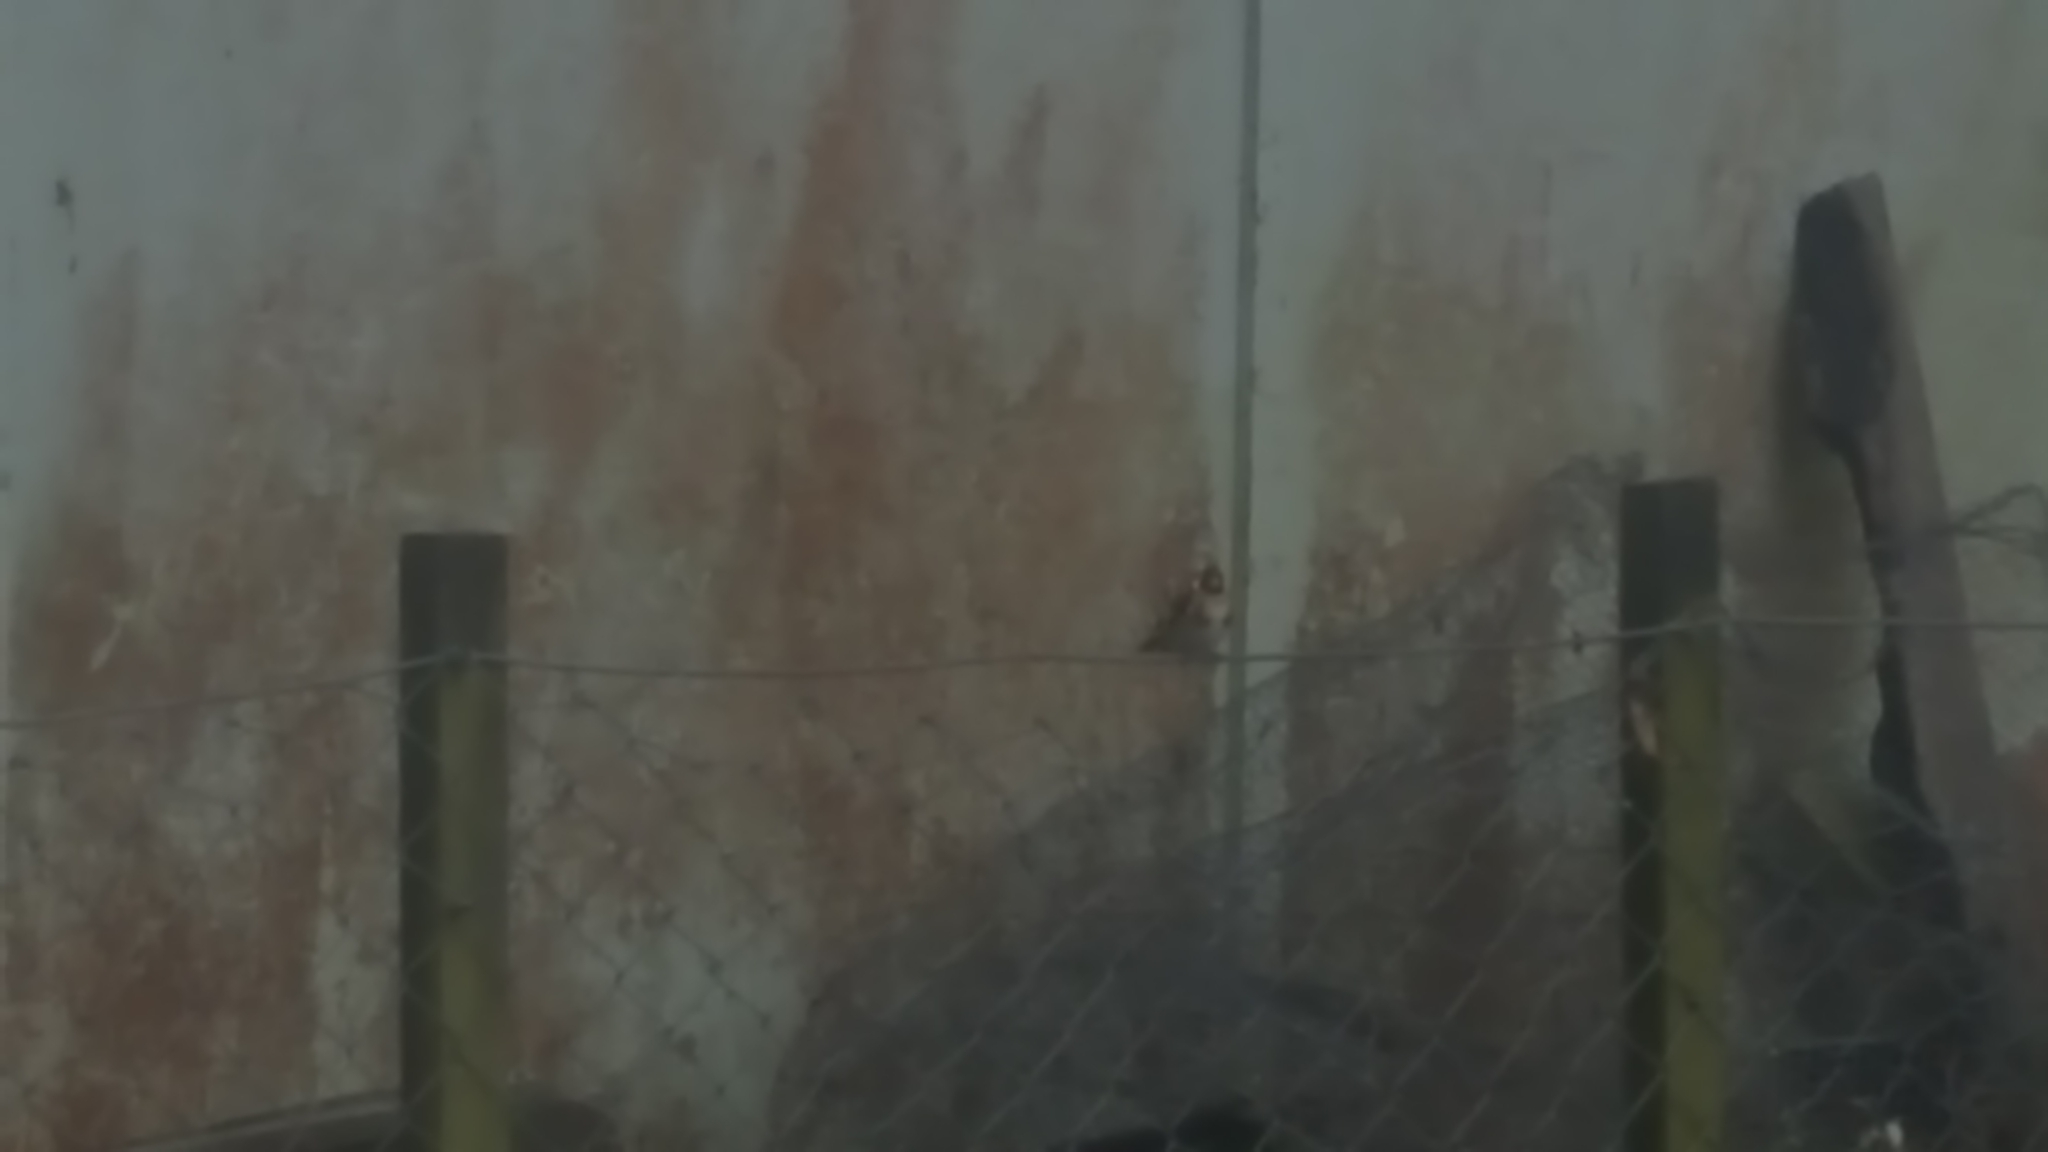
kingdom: Animalia
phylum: Chordata
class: Aves
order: Passeriformes
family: Fringillidae
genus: Carduelis
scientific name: Carduelis carduelis
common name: European goldfinch
